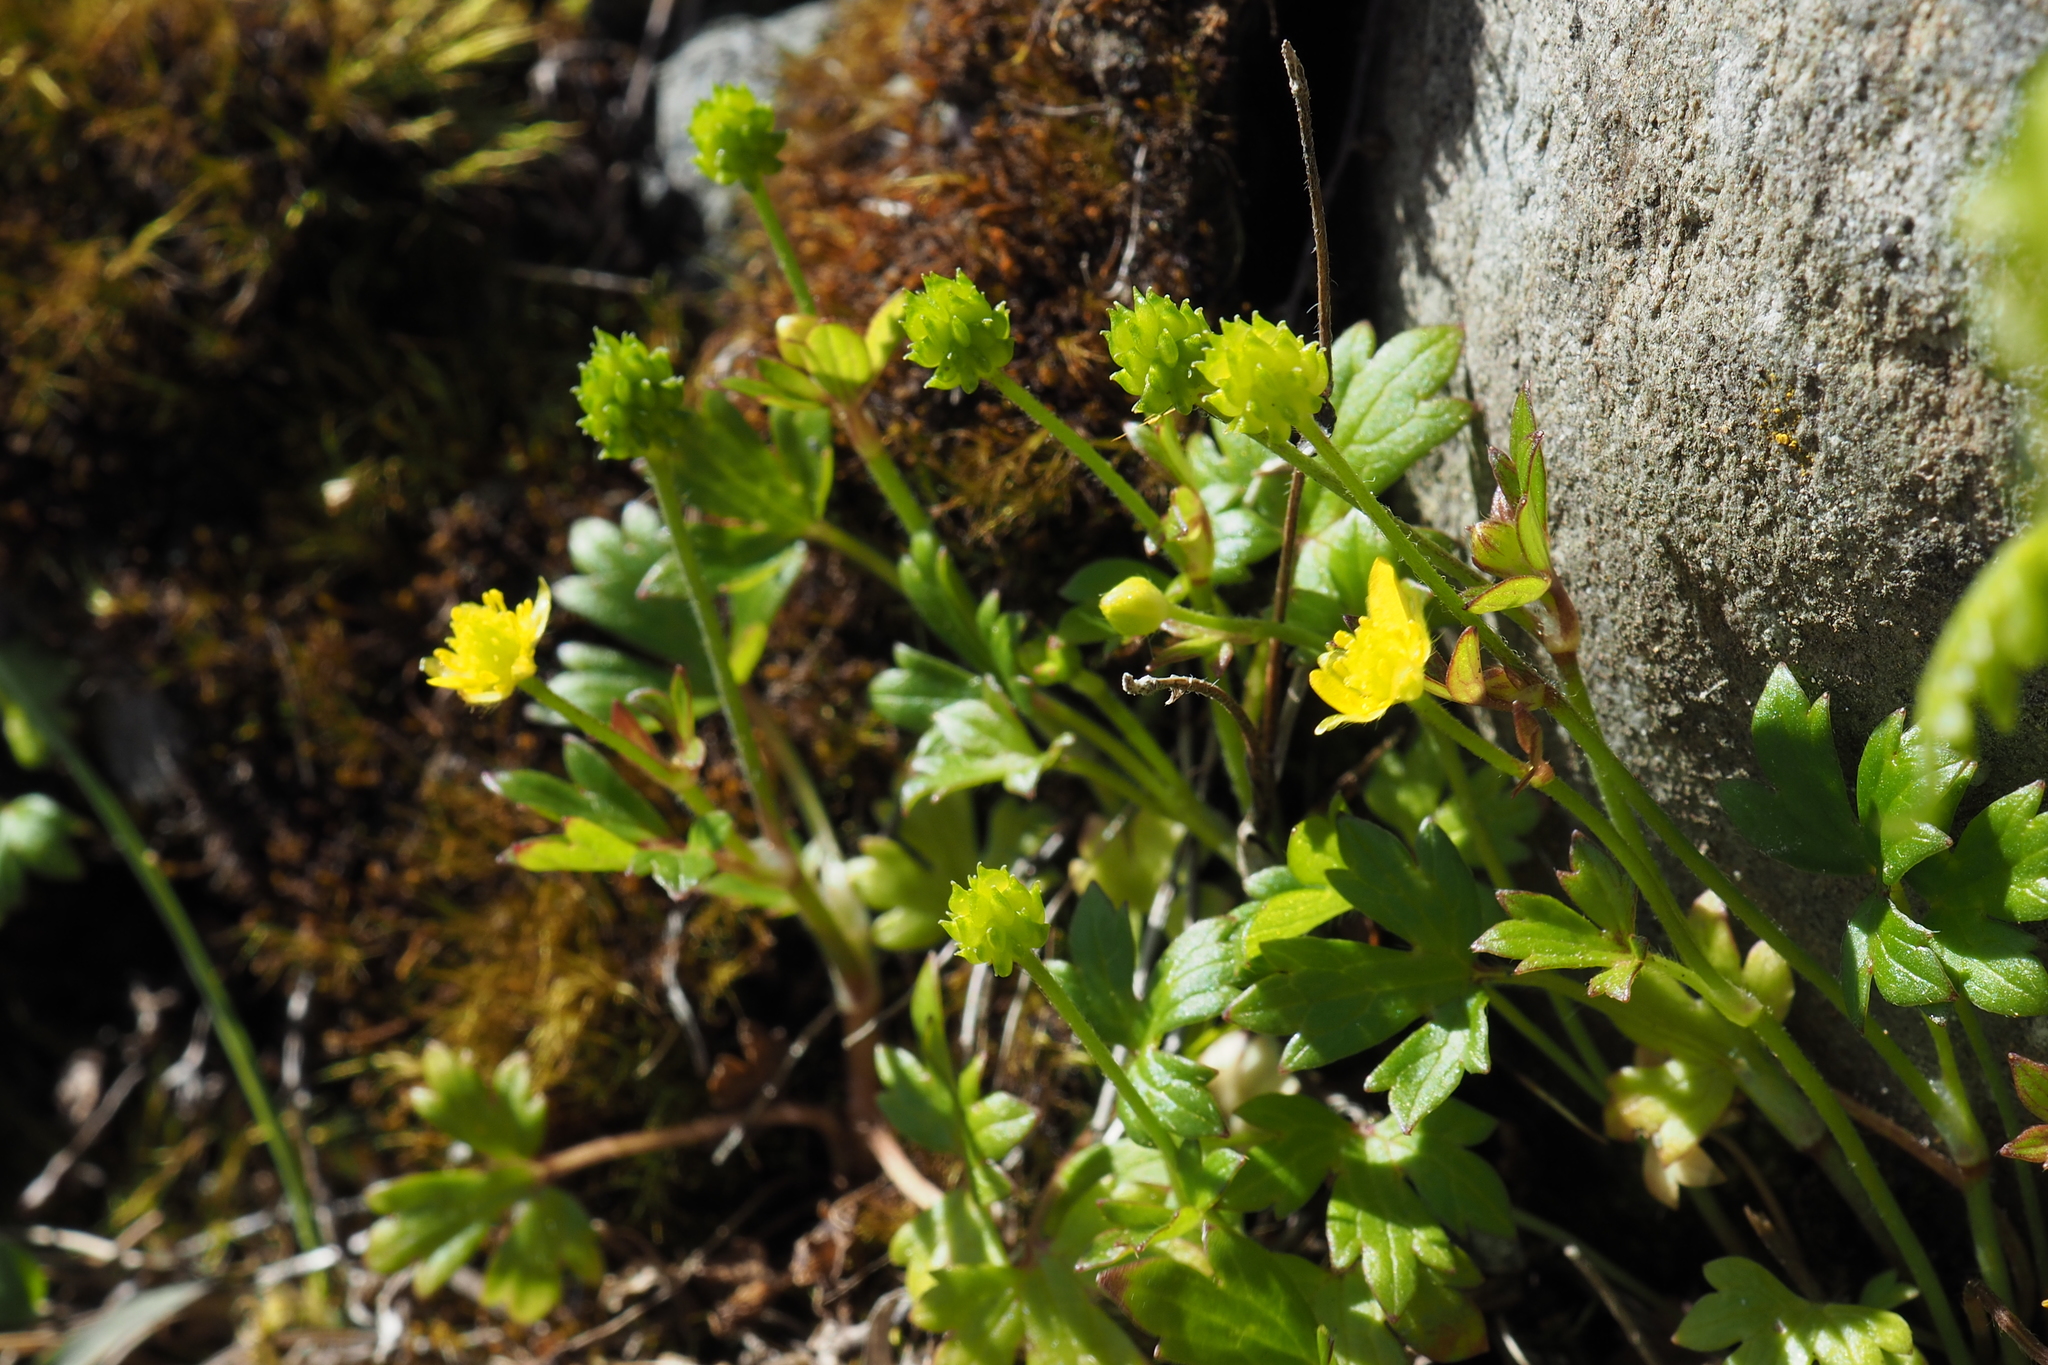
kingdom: Plantae
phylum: Tracheophyta
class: Magnoliopsida
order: Ranunculales
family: Ranunculaceae
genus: Ranunculus
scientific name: Ranunculus taisanensis
